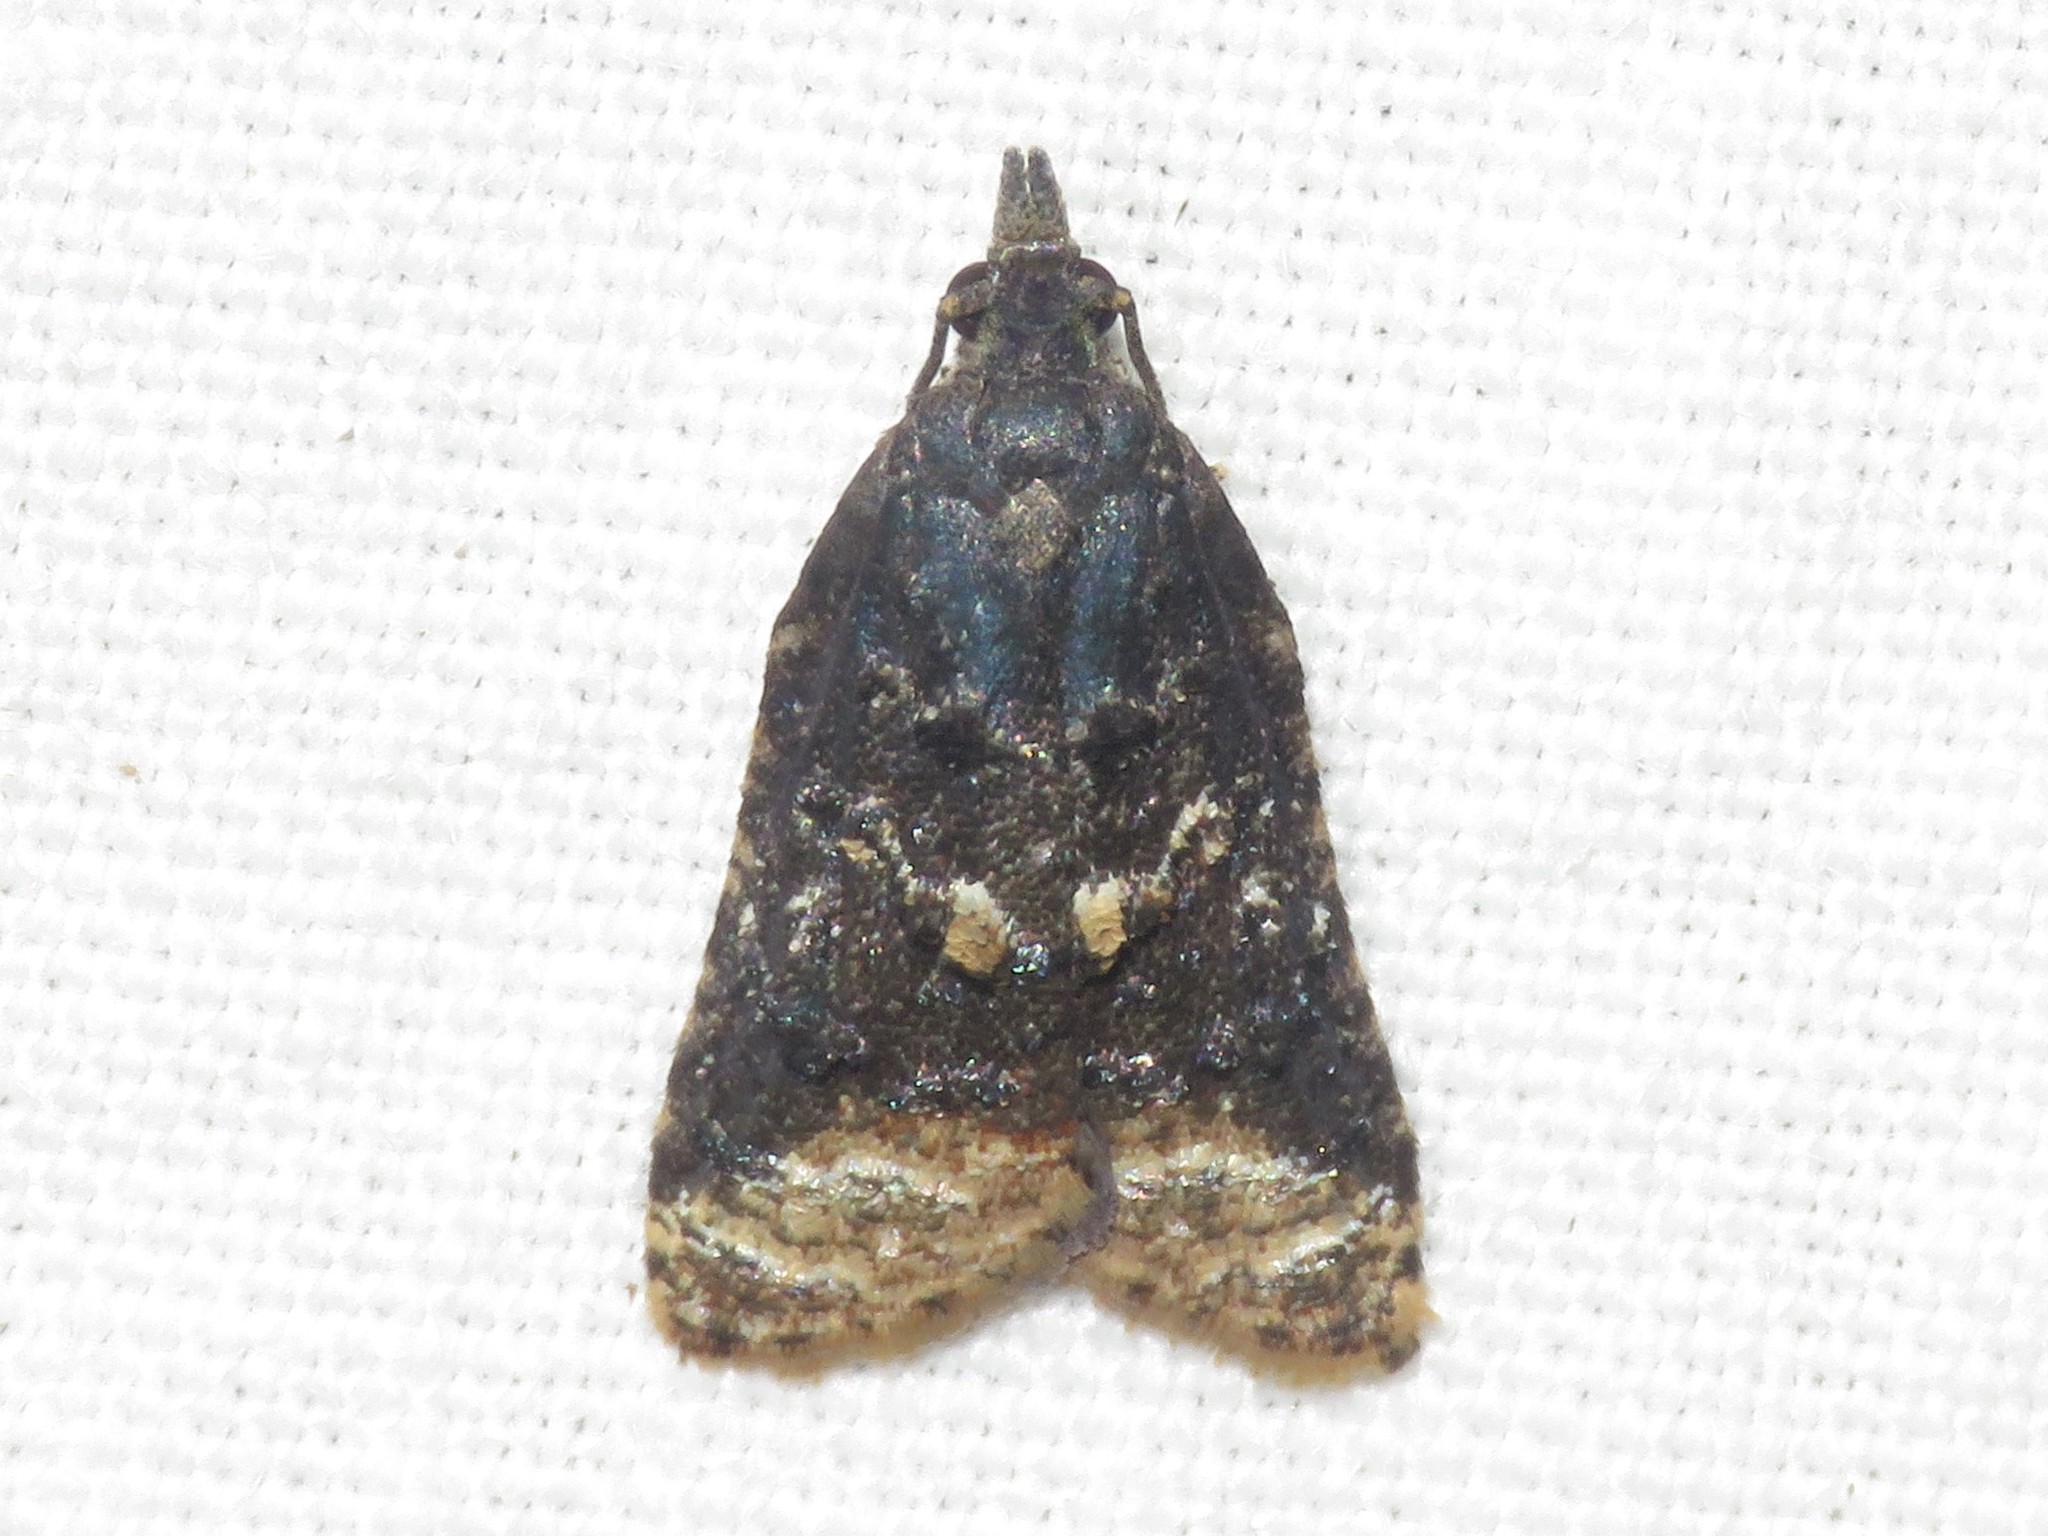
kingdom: Animalia
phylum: Arthropoda
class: Insecta
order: Lepidoptera
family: Tortricidae
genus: Platynota
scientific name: Platynota semiustana
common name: Singed platynota
